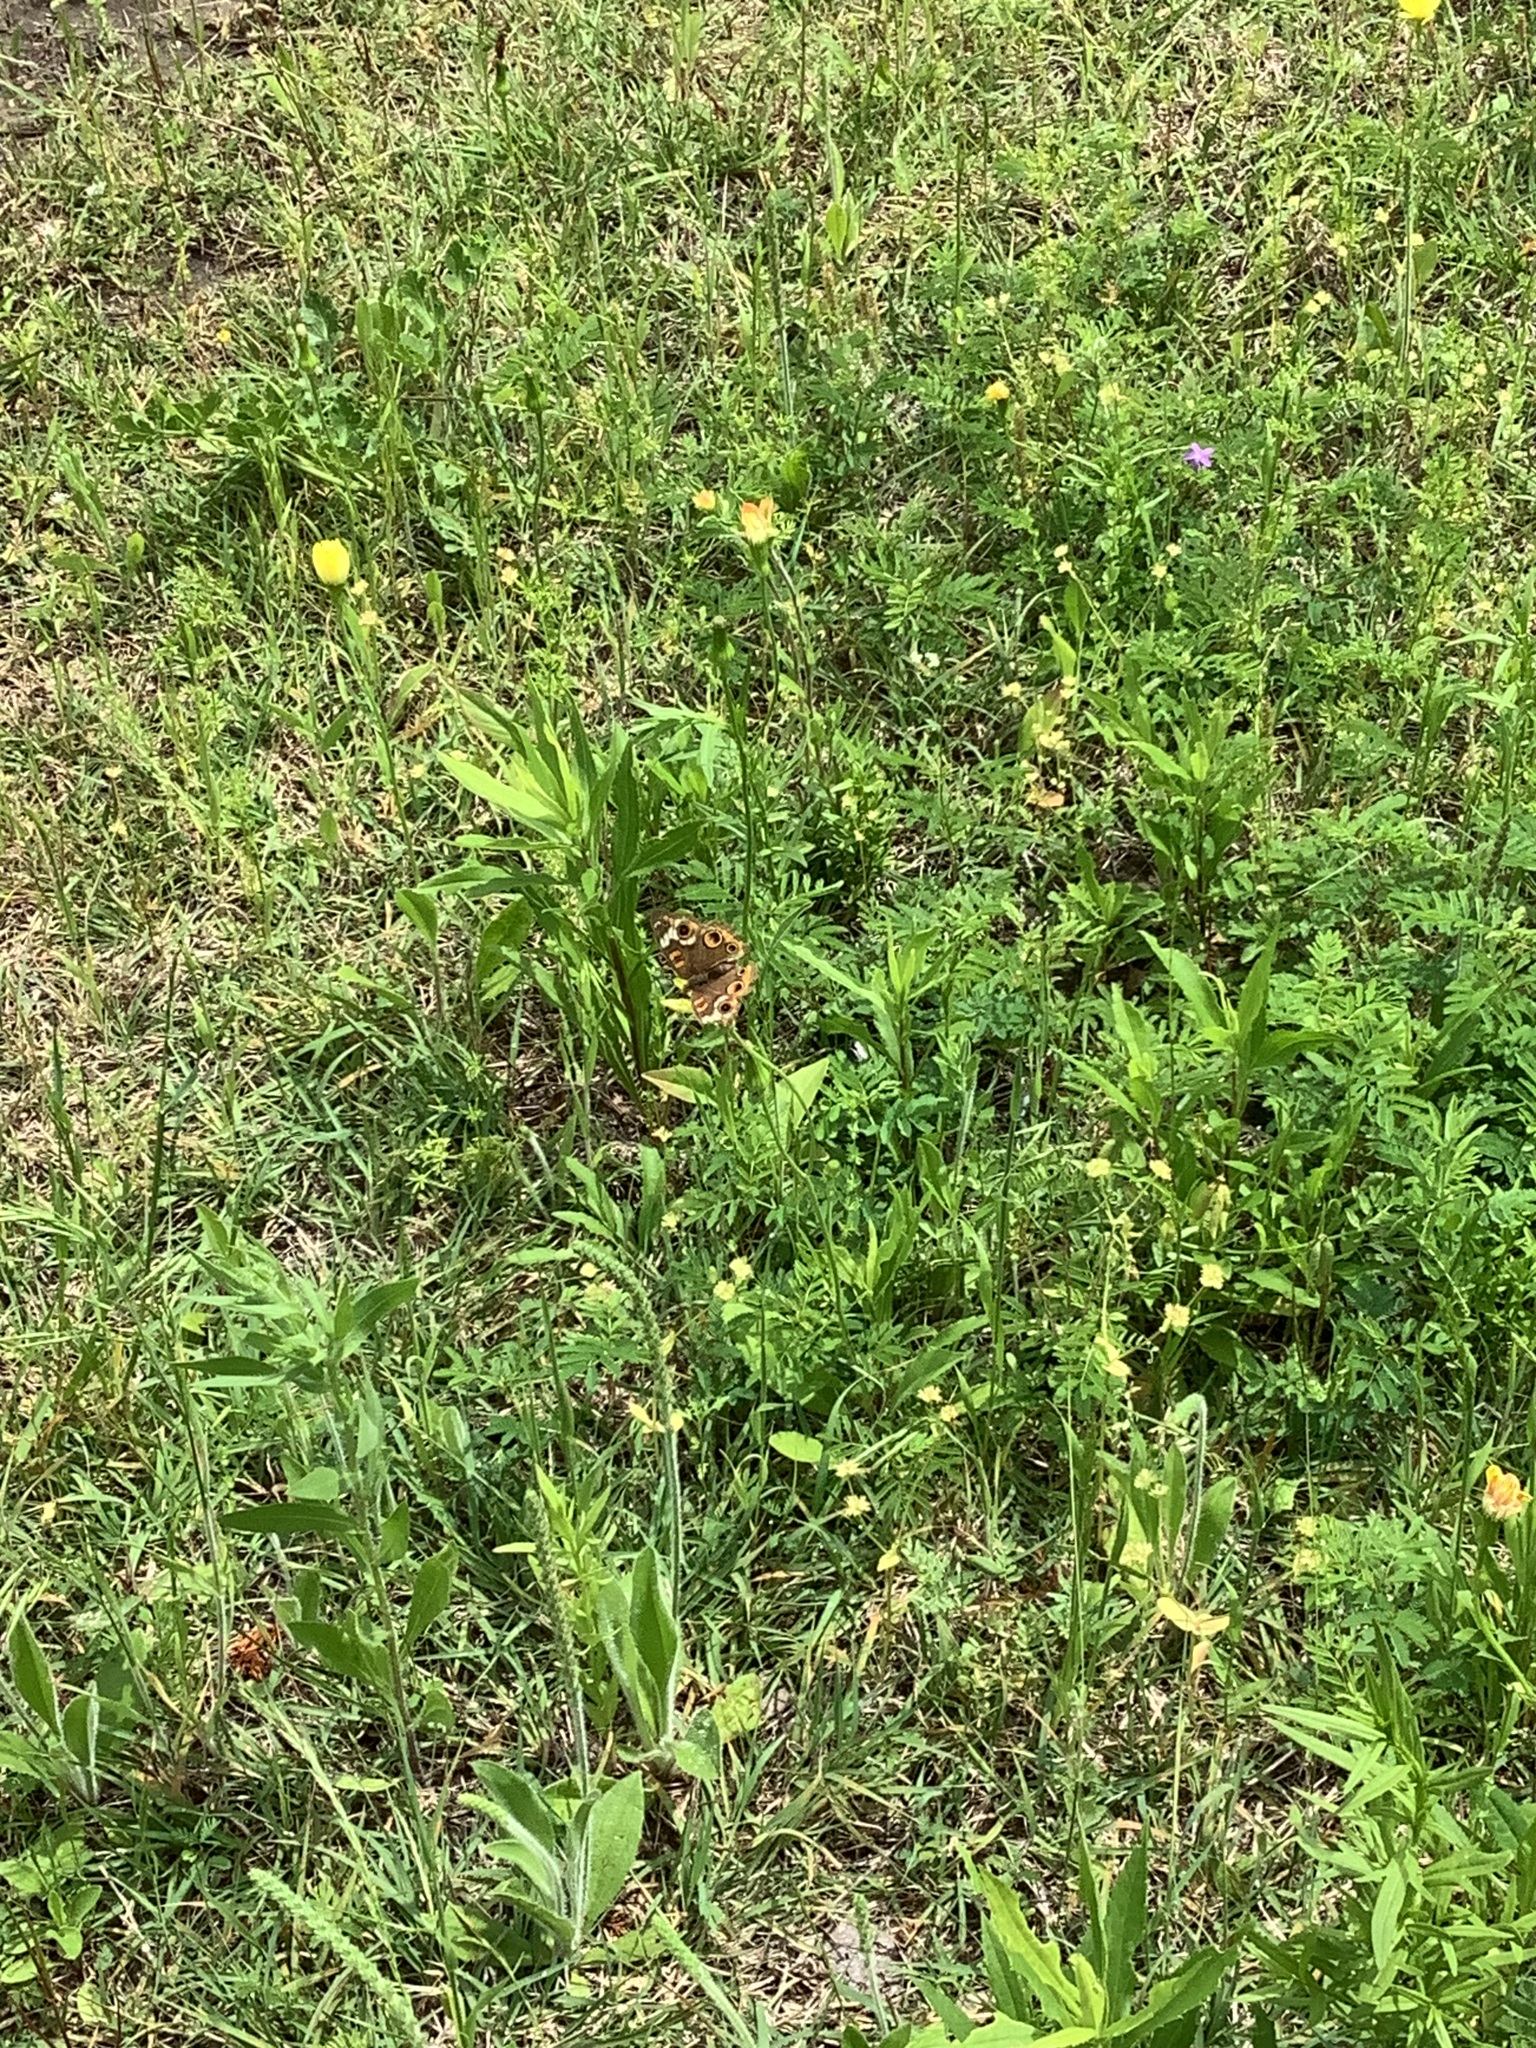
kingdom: Animalia
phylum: Arthropoda
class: Insecta
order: Lepidoptera
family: Nymphalidae
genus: Junonia
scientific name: Junonia coenia
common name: Common buckeye
